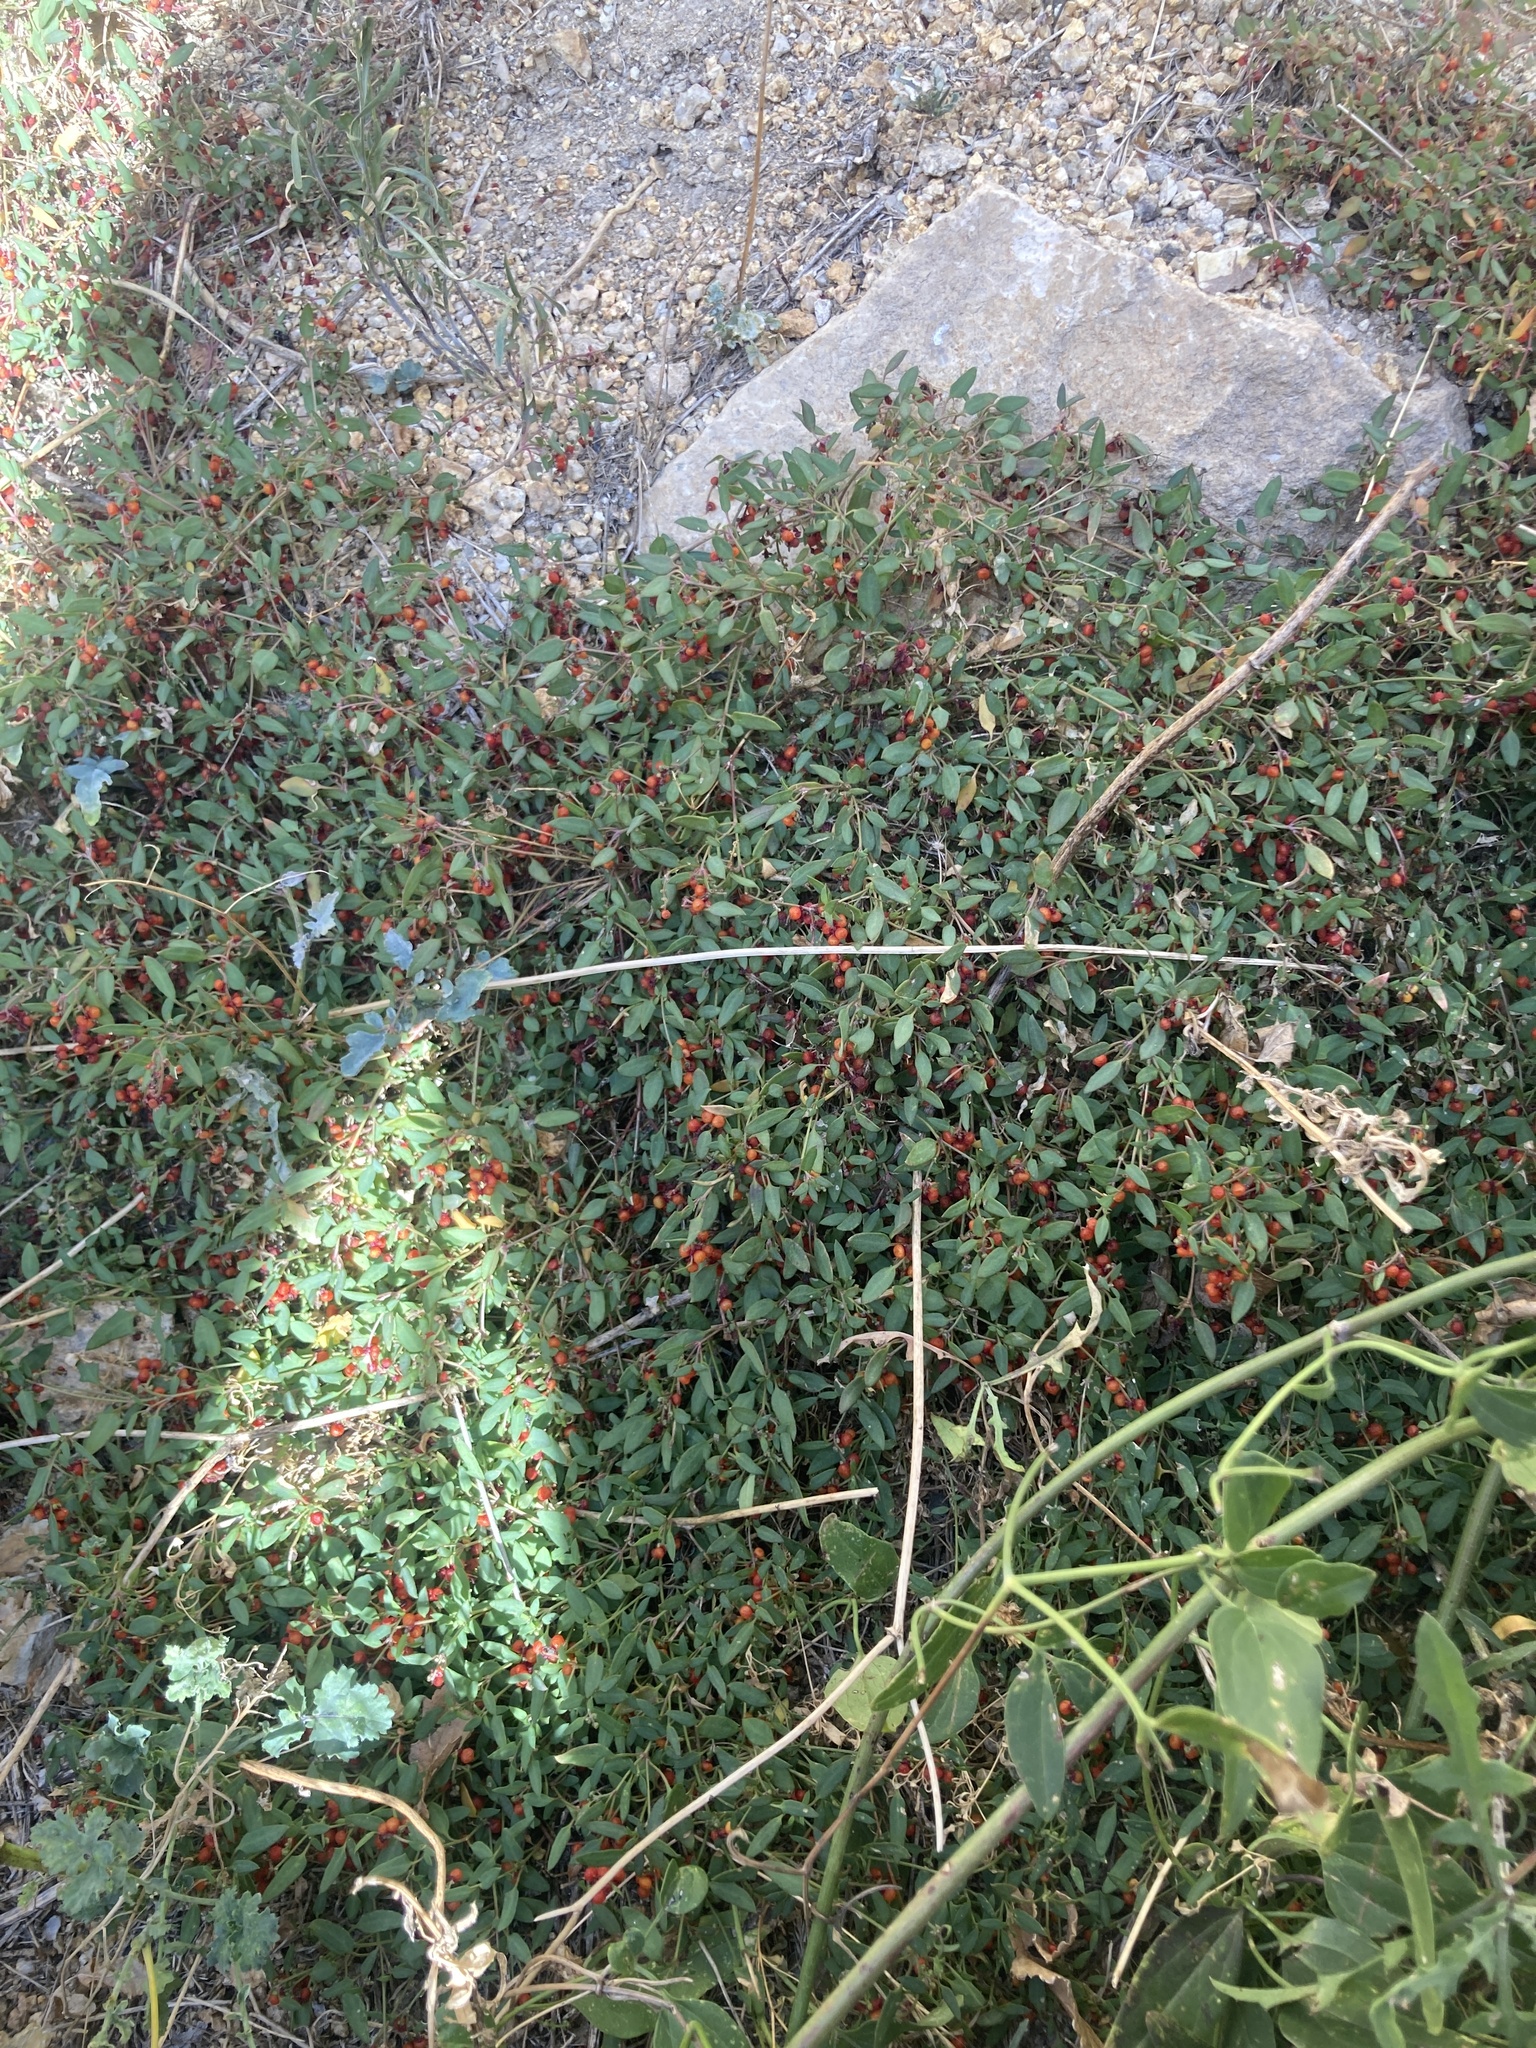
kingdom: Plantae
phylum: Tracheophyta
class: Magnoliopsida
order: Caryophyllales
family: Amaranthaceae
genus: Chenopodium
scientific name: Chenopodium nutans
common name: Climbing-saltbush
